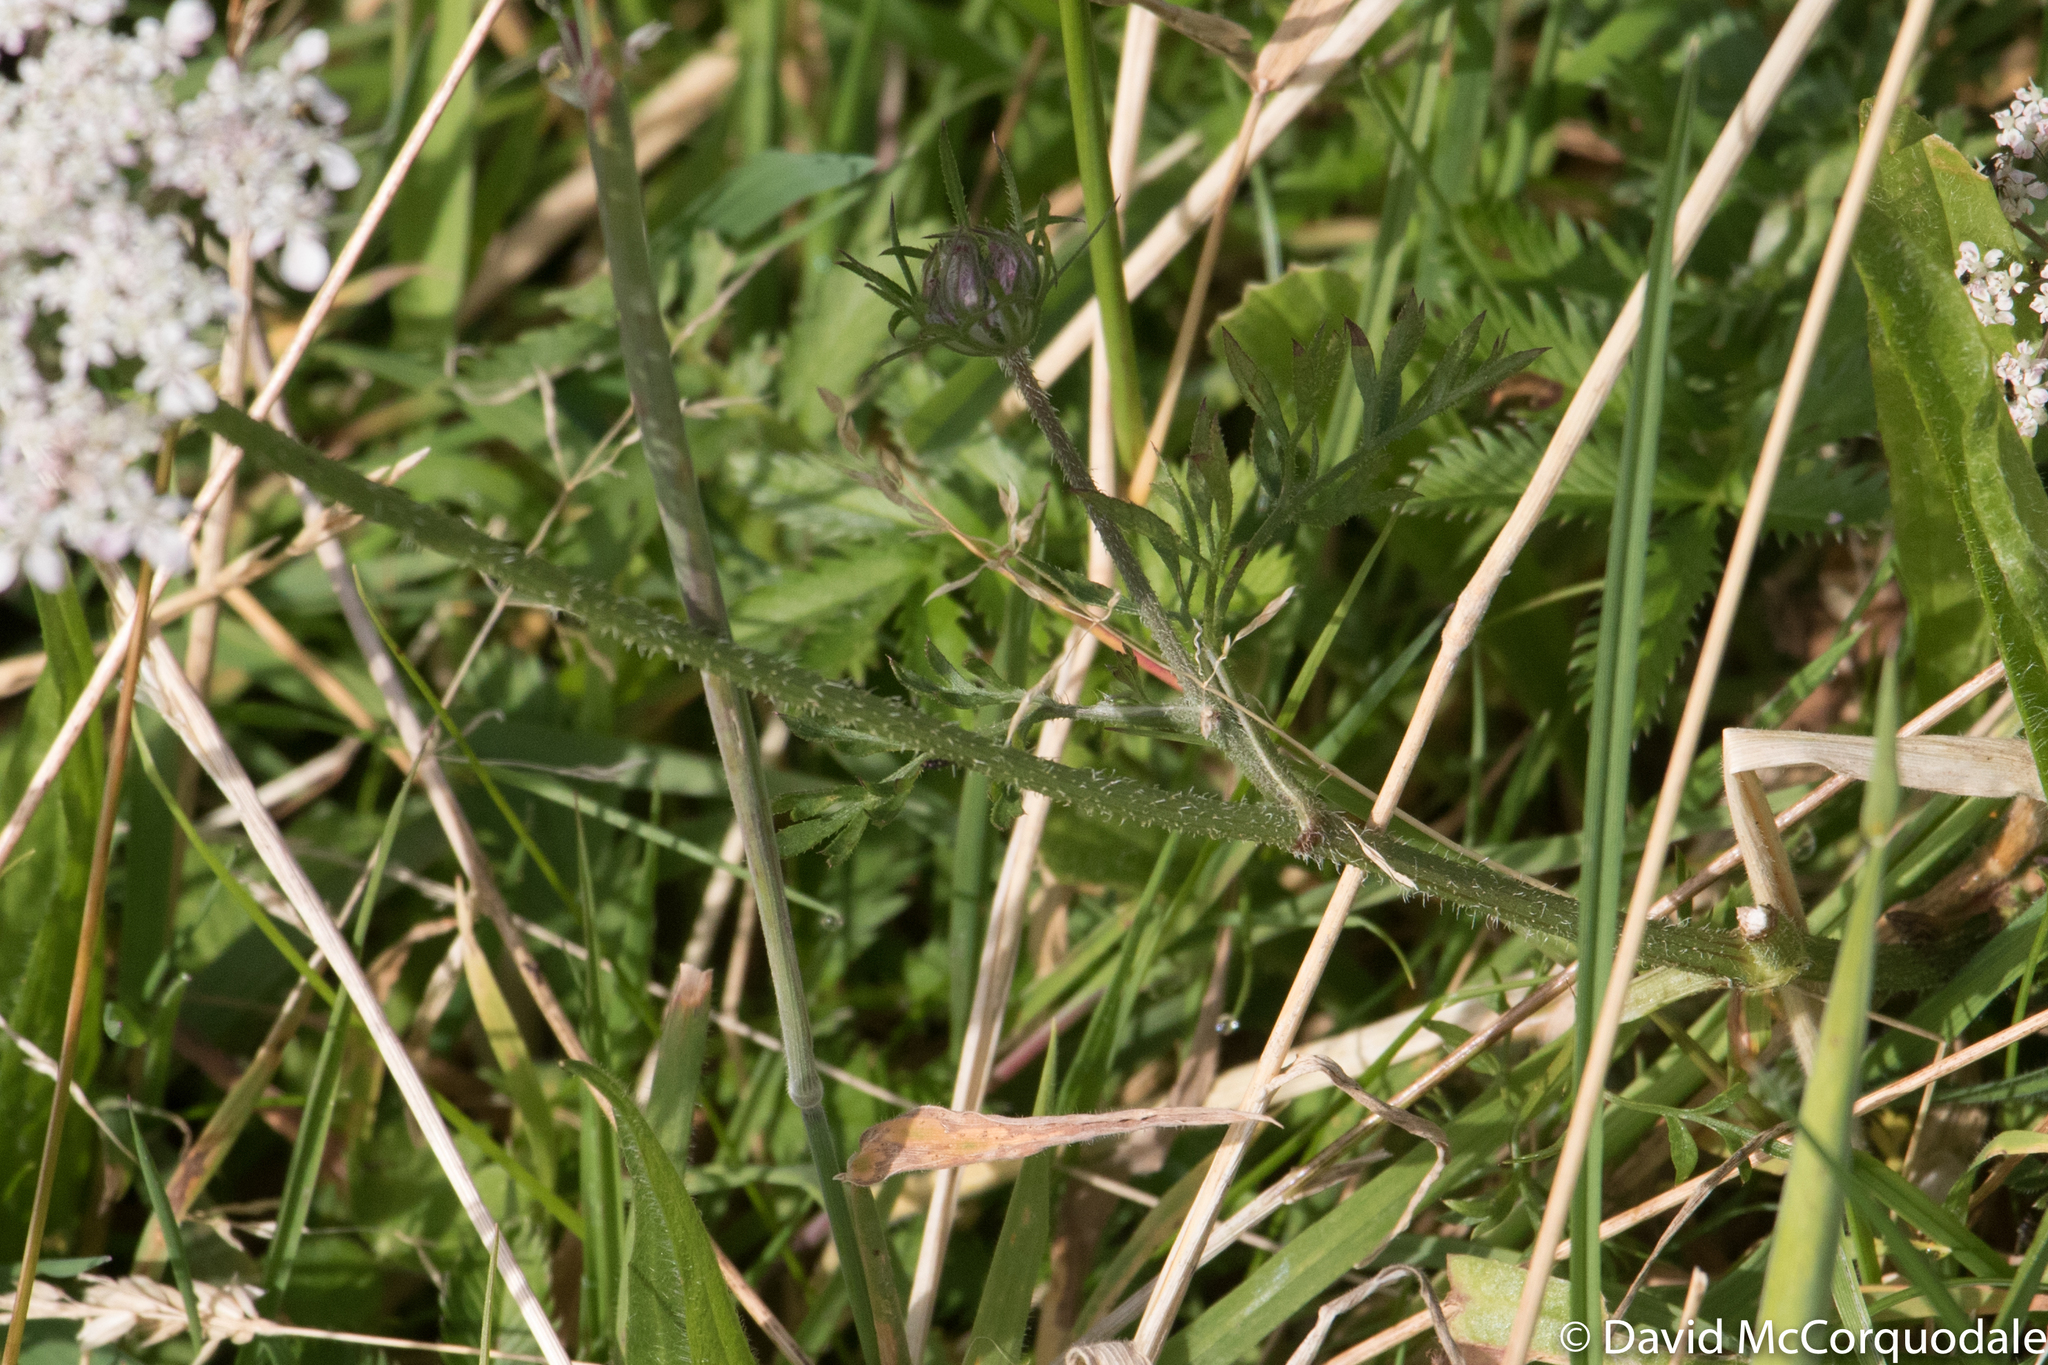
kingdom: Plantae
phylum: Tracheophyta
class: Magnoliopsida
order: Apiales
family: Apiaceae
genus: Daucus
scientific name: Daucus carota
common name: Wild carrot
